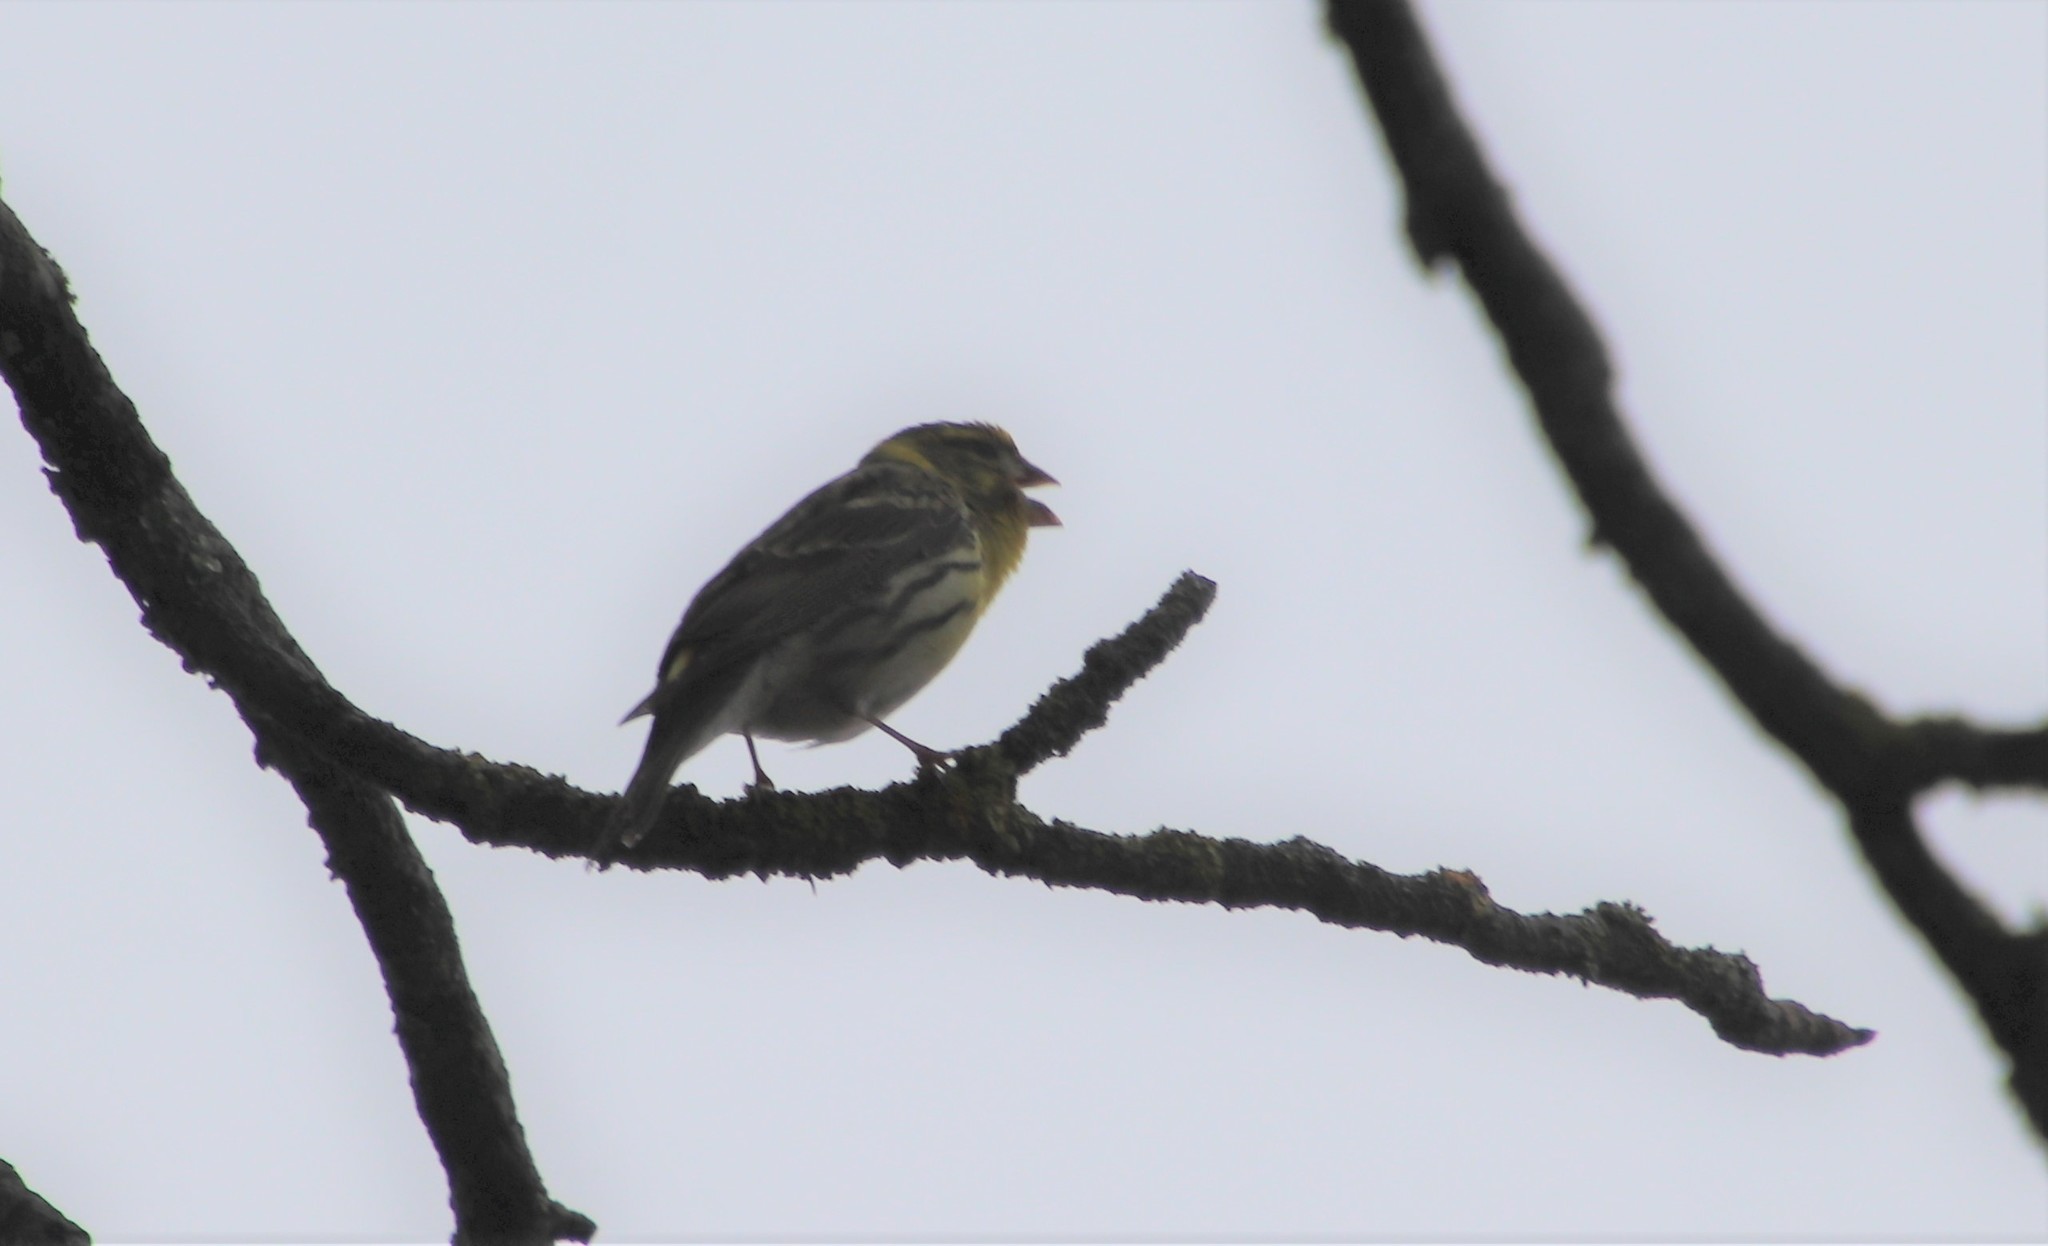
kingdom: Animalia
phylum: Chordata
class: Aves
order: Passeriformes
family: Fringillidae
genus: Serinus
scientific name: Serinus serinus
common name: European serin
